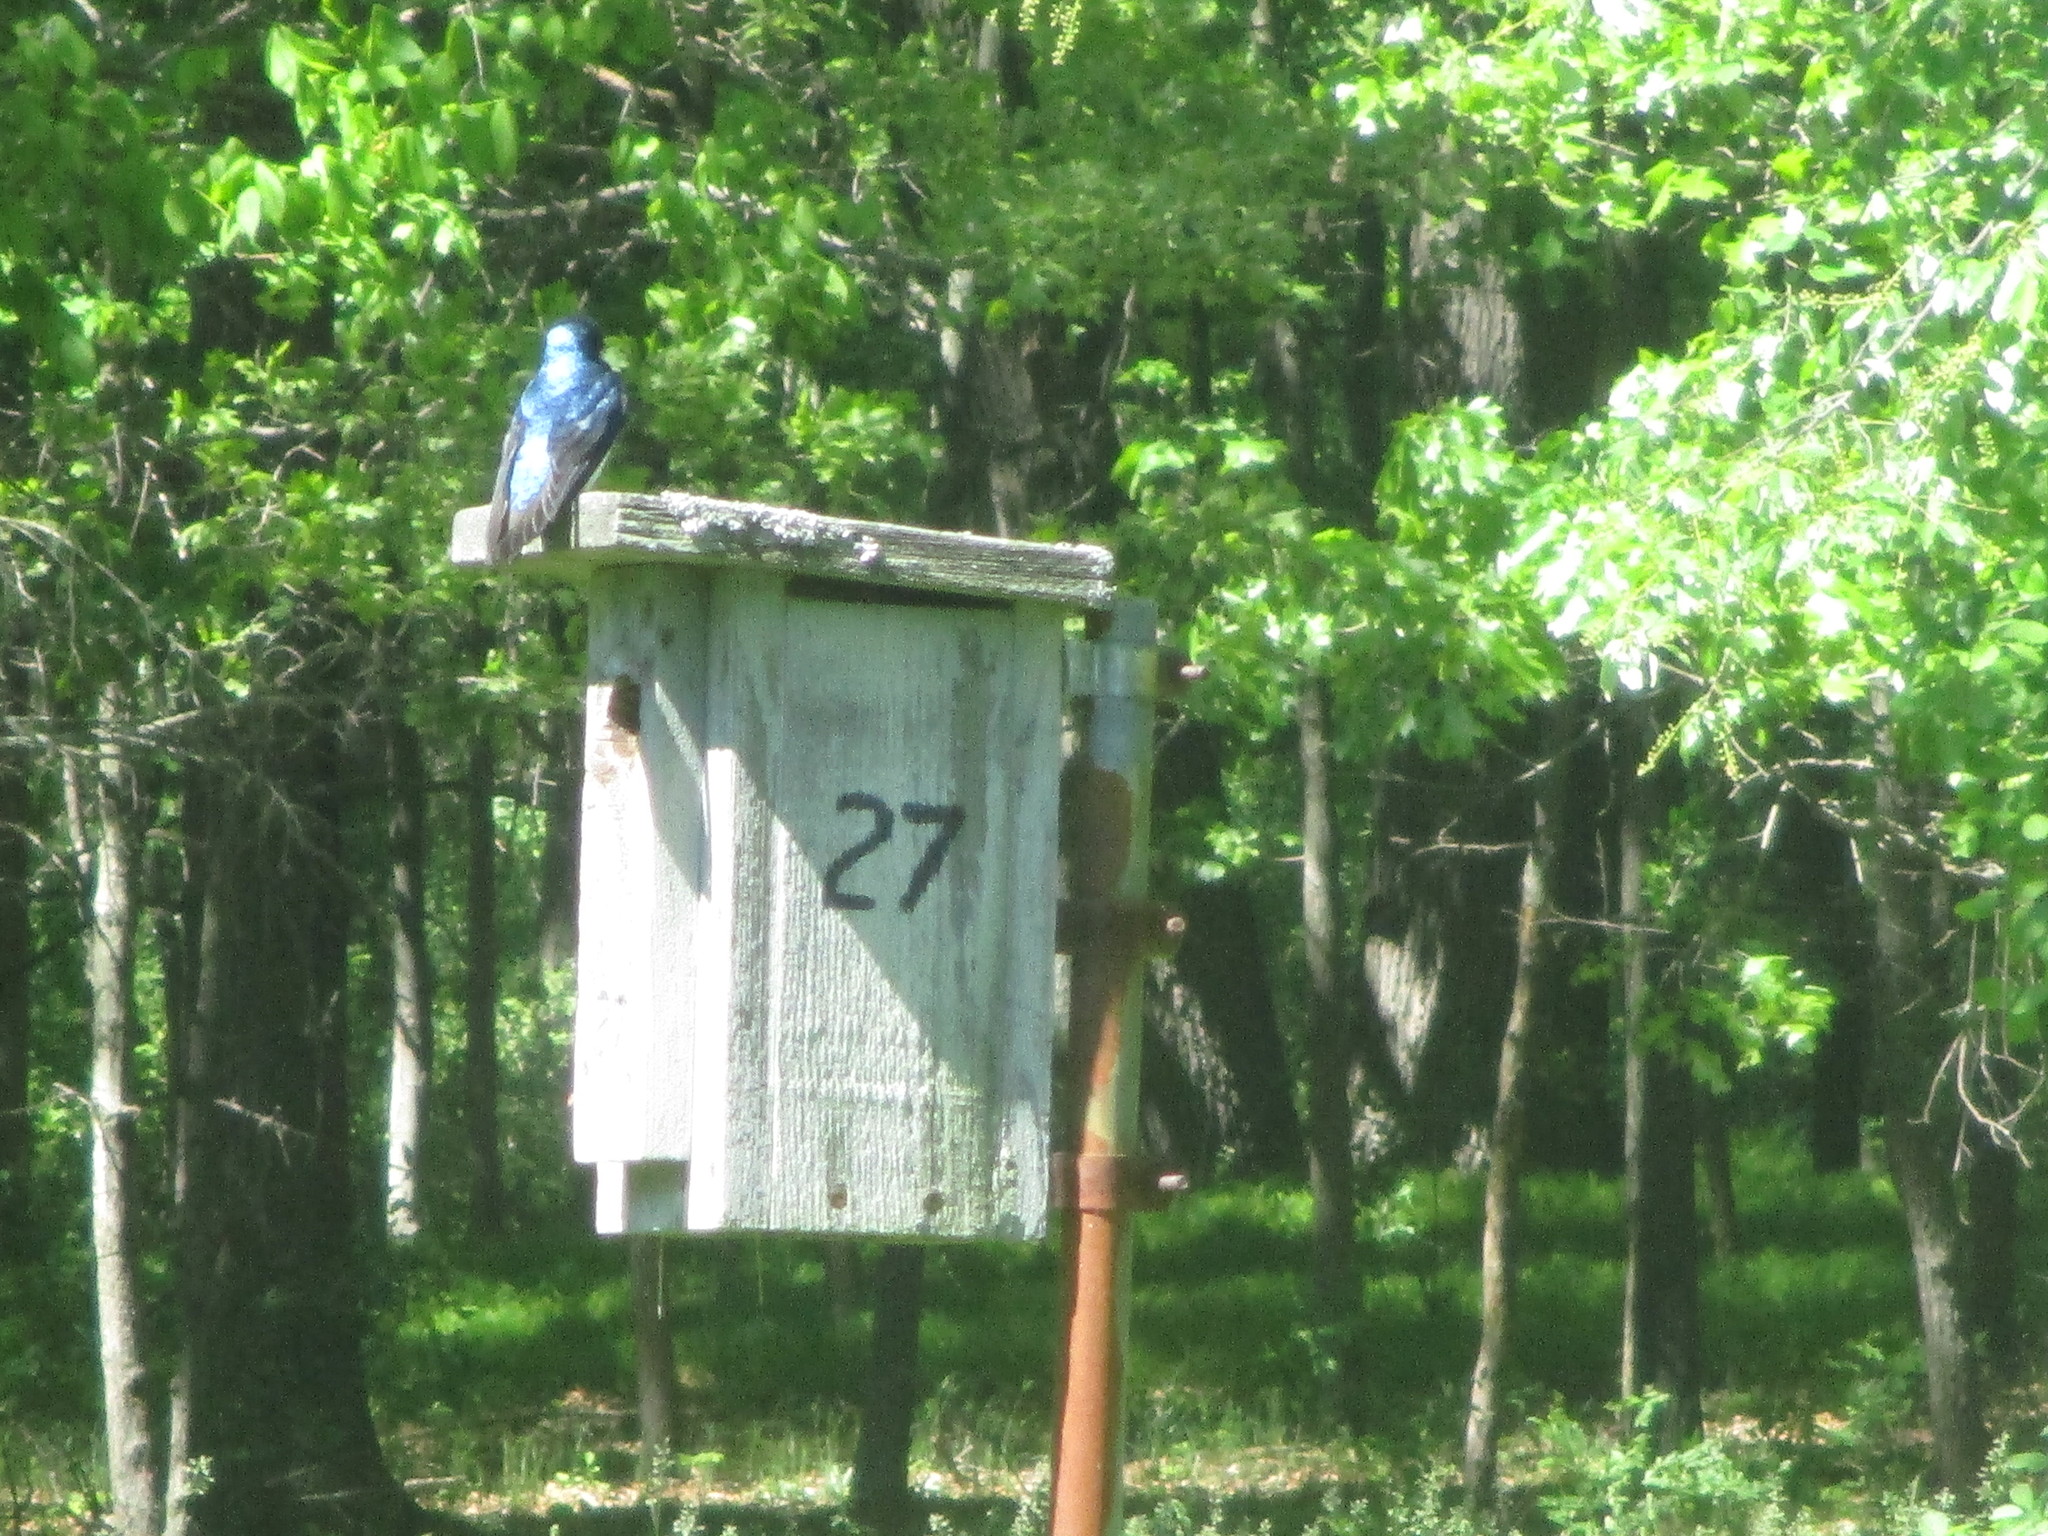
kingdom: Animalia
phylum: Chordata
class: Aves
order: Passeriformes
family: Hirundinidae
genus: Tachycineta
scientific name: Tachycineta bicolor
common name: Tree swallow
